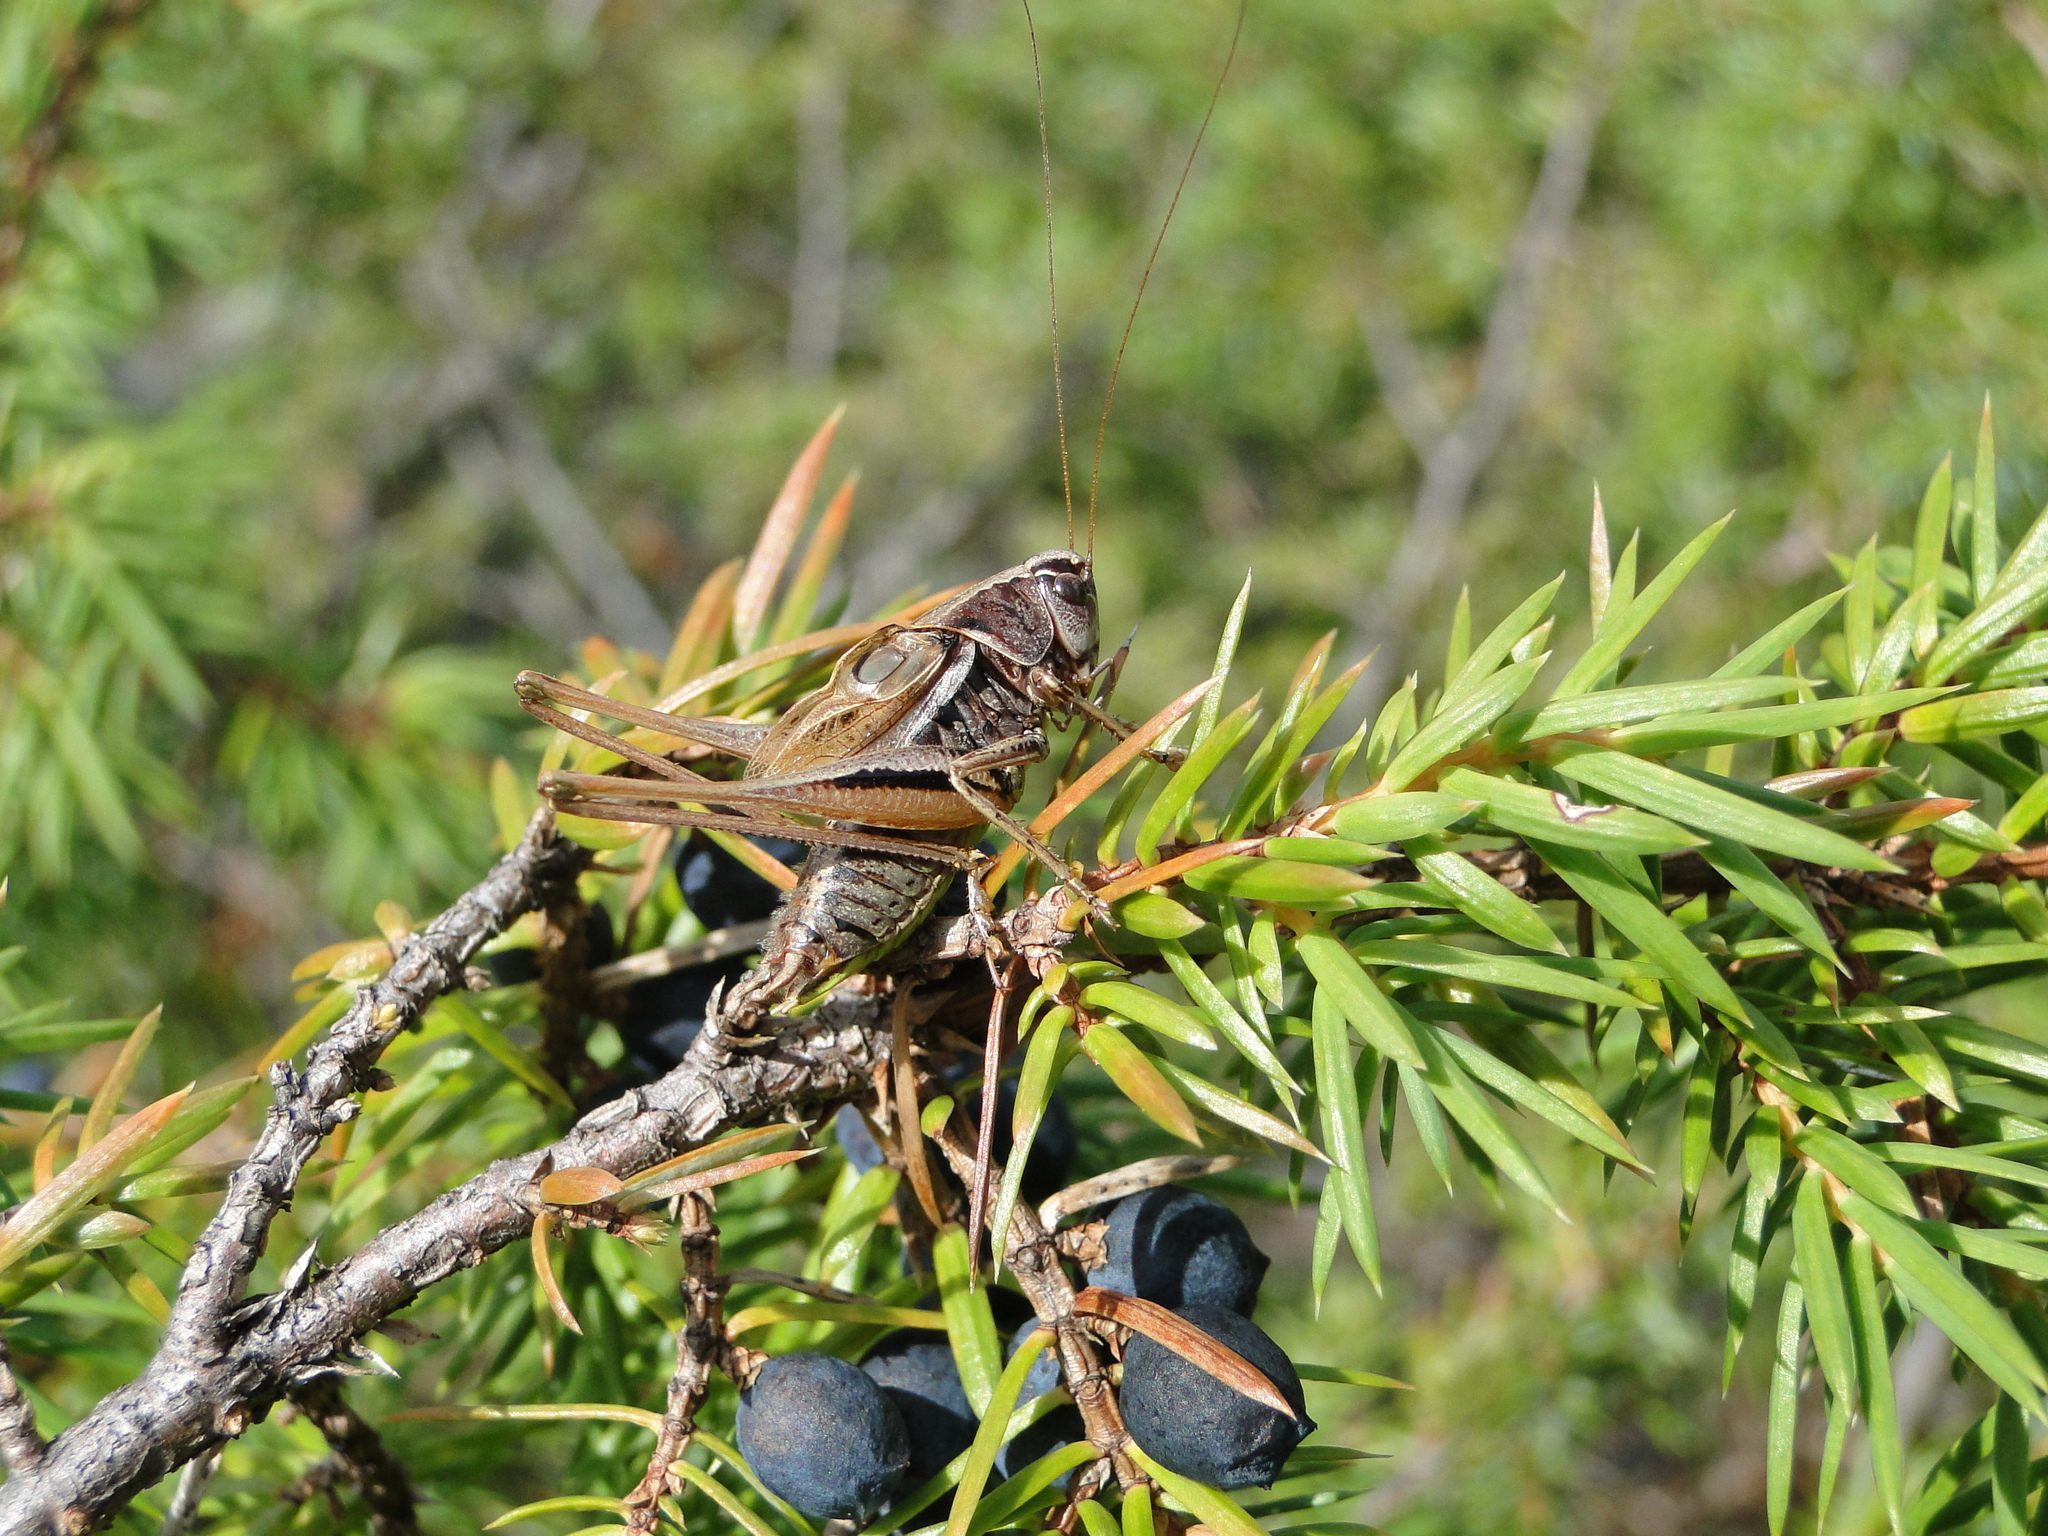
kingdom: Animalia
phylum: Arthropoda
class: Insecta
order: Orthoptera
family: Tettigoniidae
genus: Metrioptera
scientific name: Metrioptera brachyptera
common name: Bog bush-cricket
